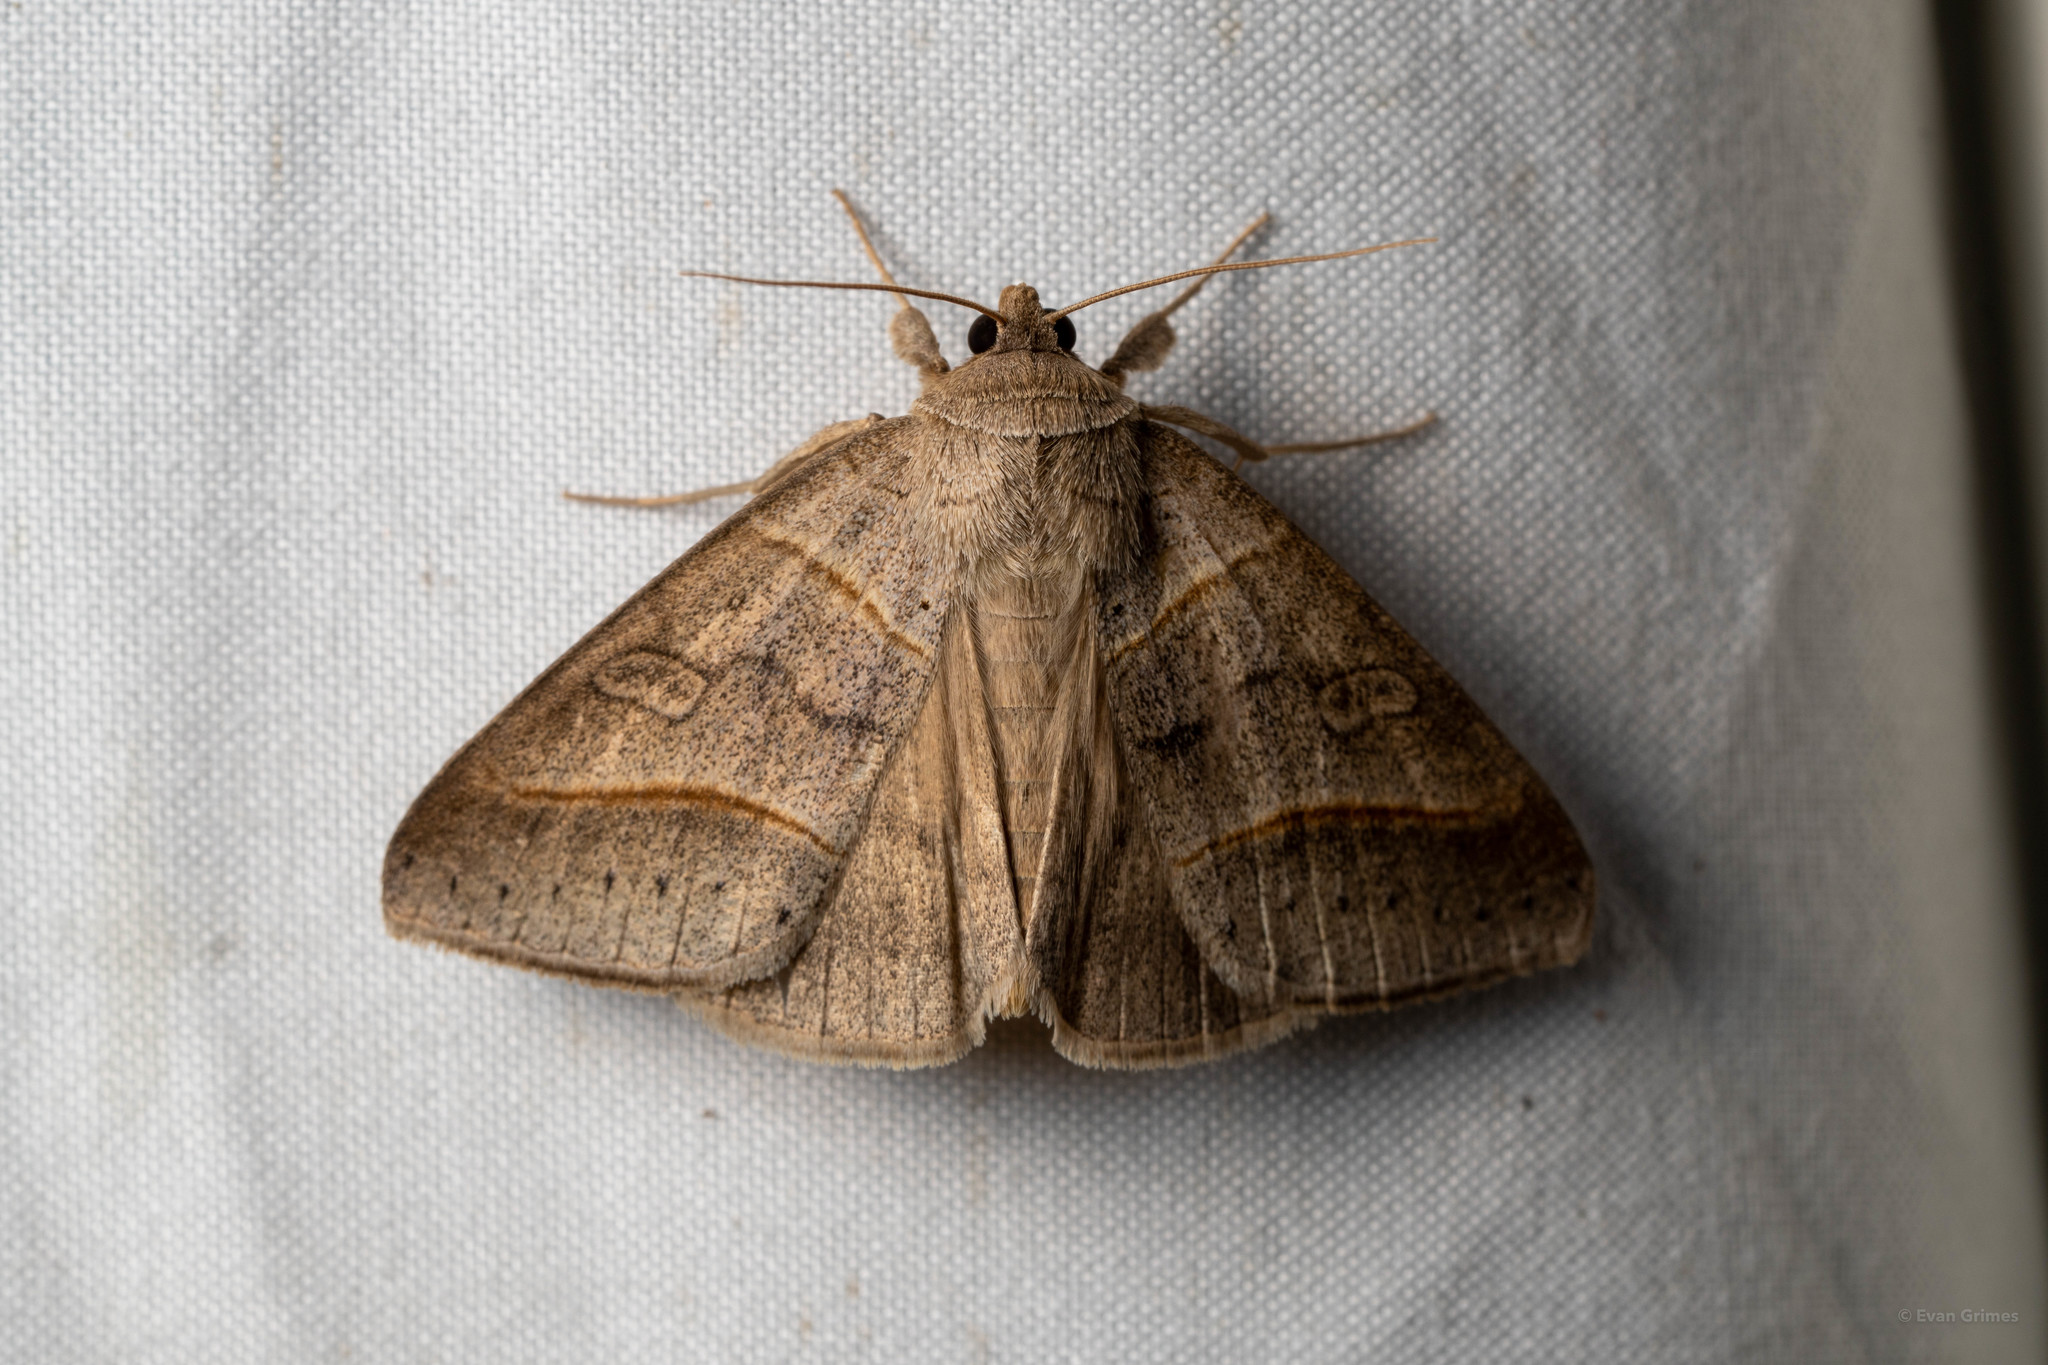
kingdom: Animalia
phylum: Arthropoda
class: Insecta
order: Lepidoptera
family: Erebidae
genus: Mocis
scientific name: Mocis texana
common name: Texas mocis moth
